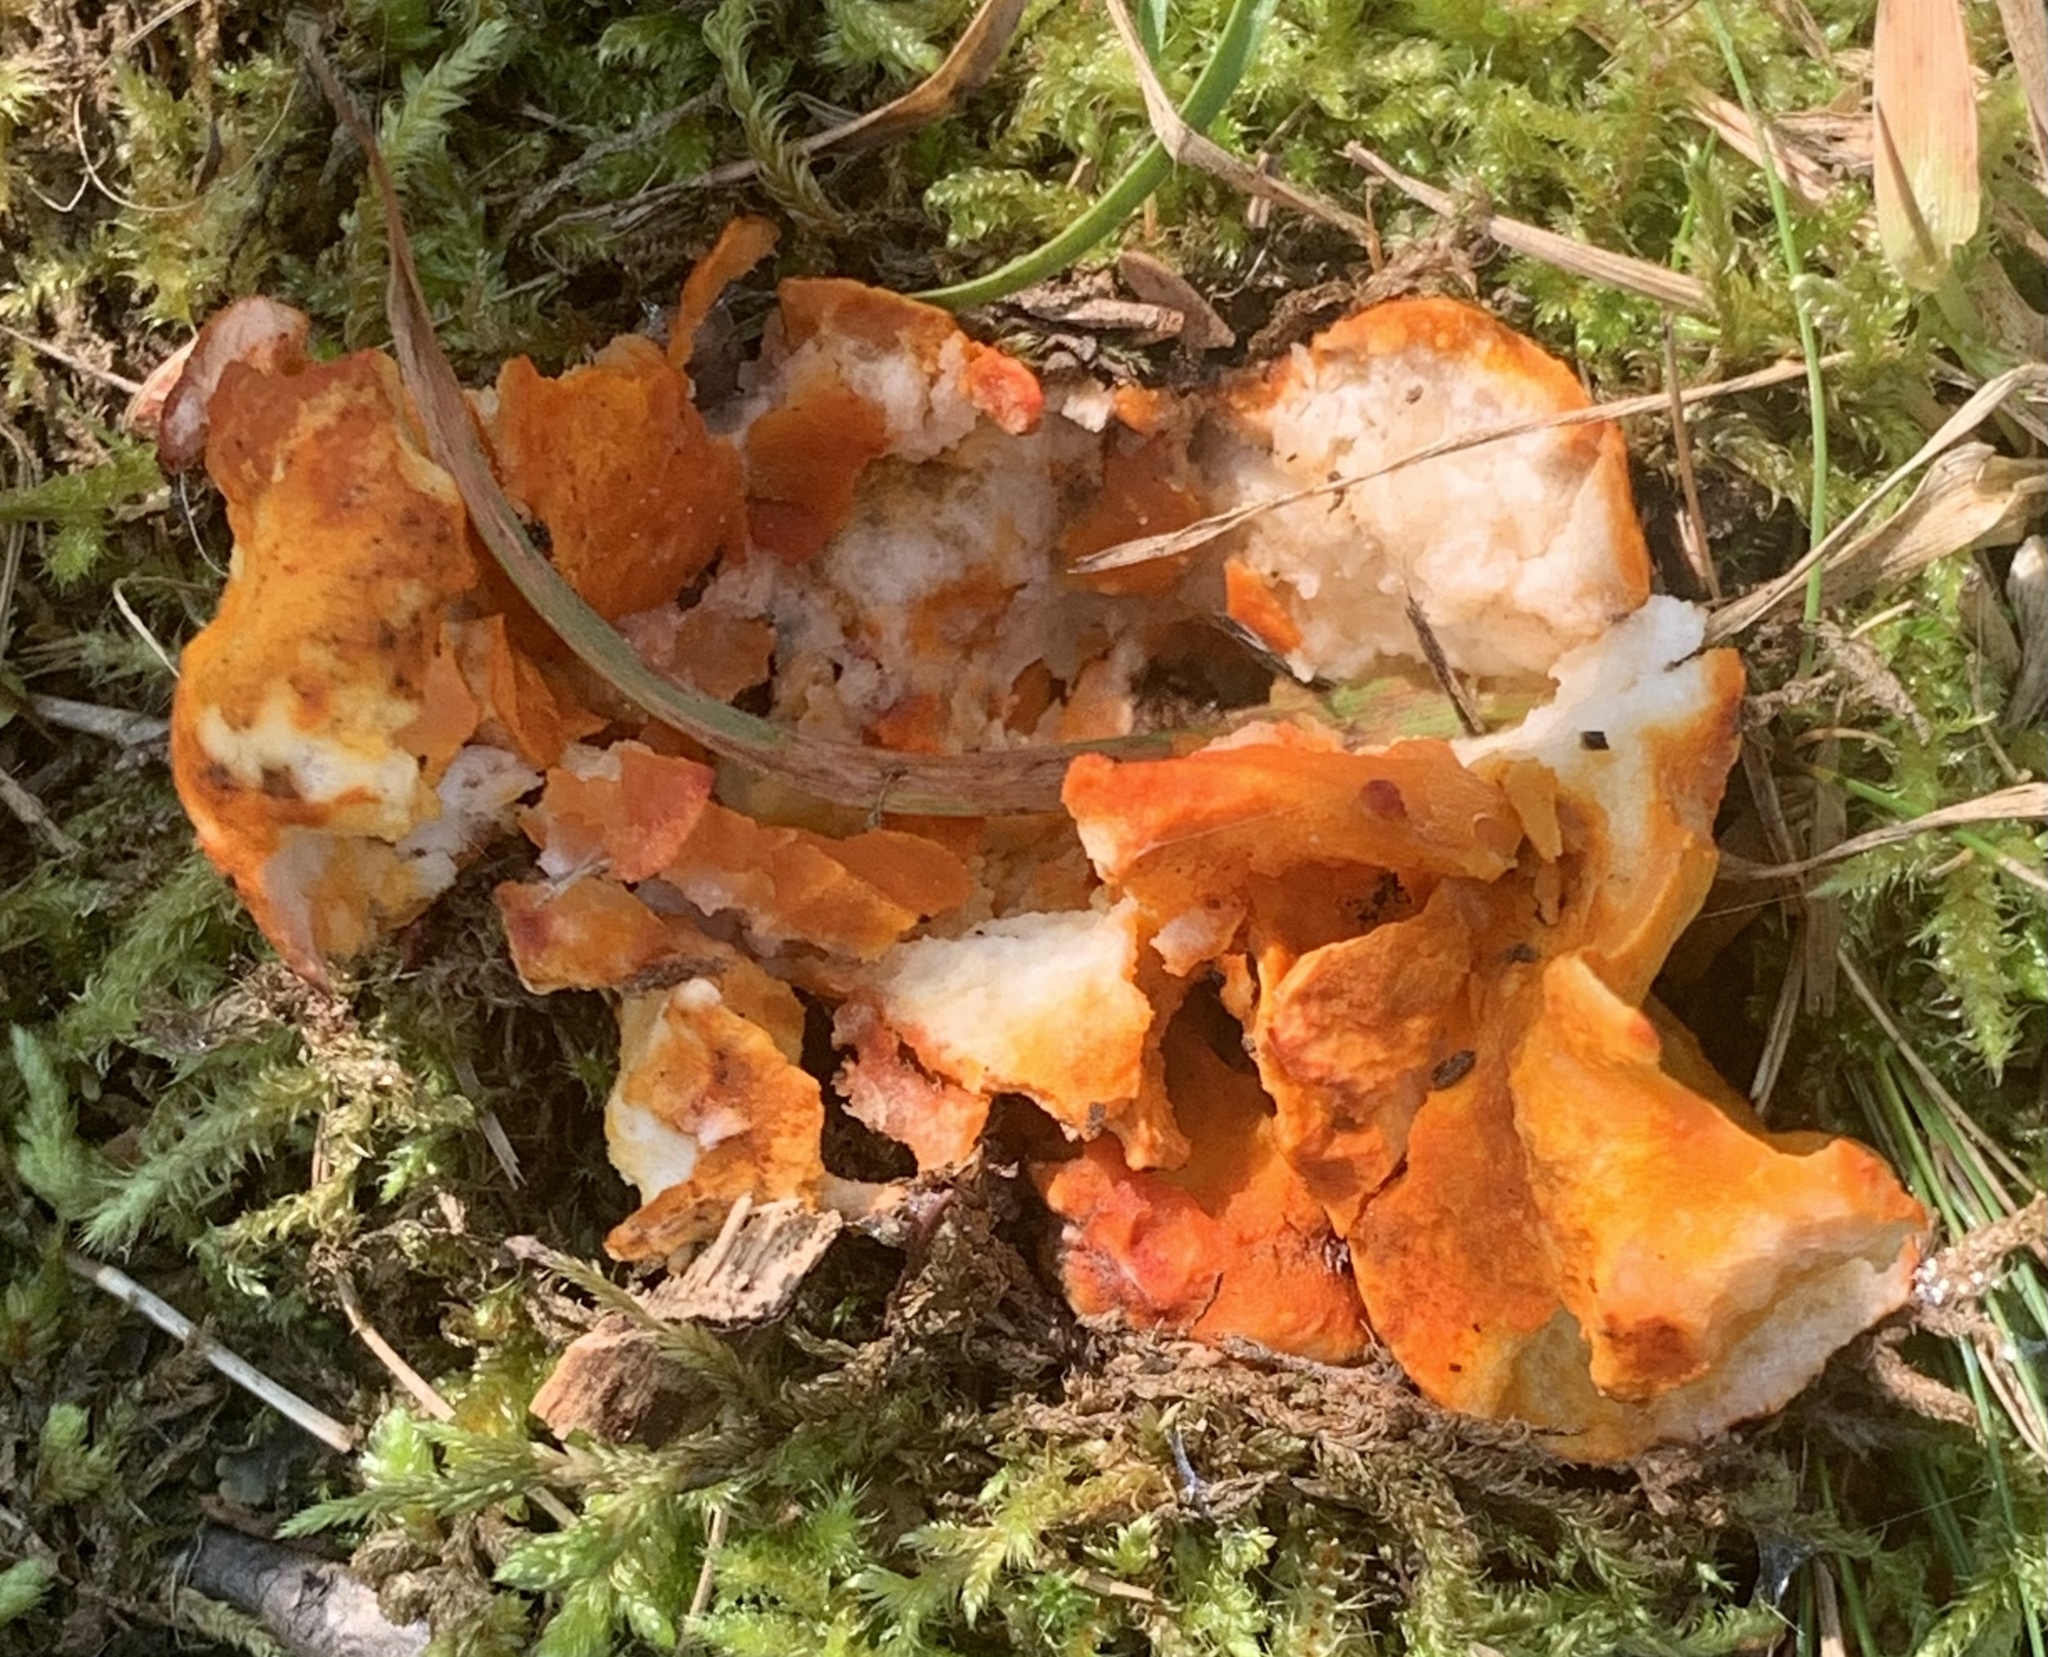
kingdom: Fungi
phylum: Ascomycota
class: Sordariomycetes
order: Hypocreales
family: Hypocreaceae
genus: Hypomyces
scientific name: Hypomyces lactifluorum
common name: Lobster mushroom
